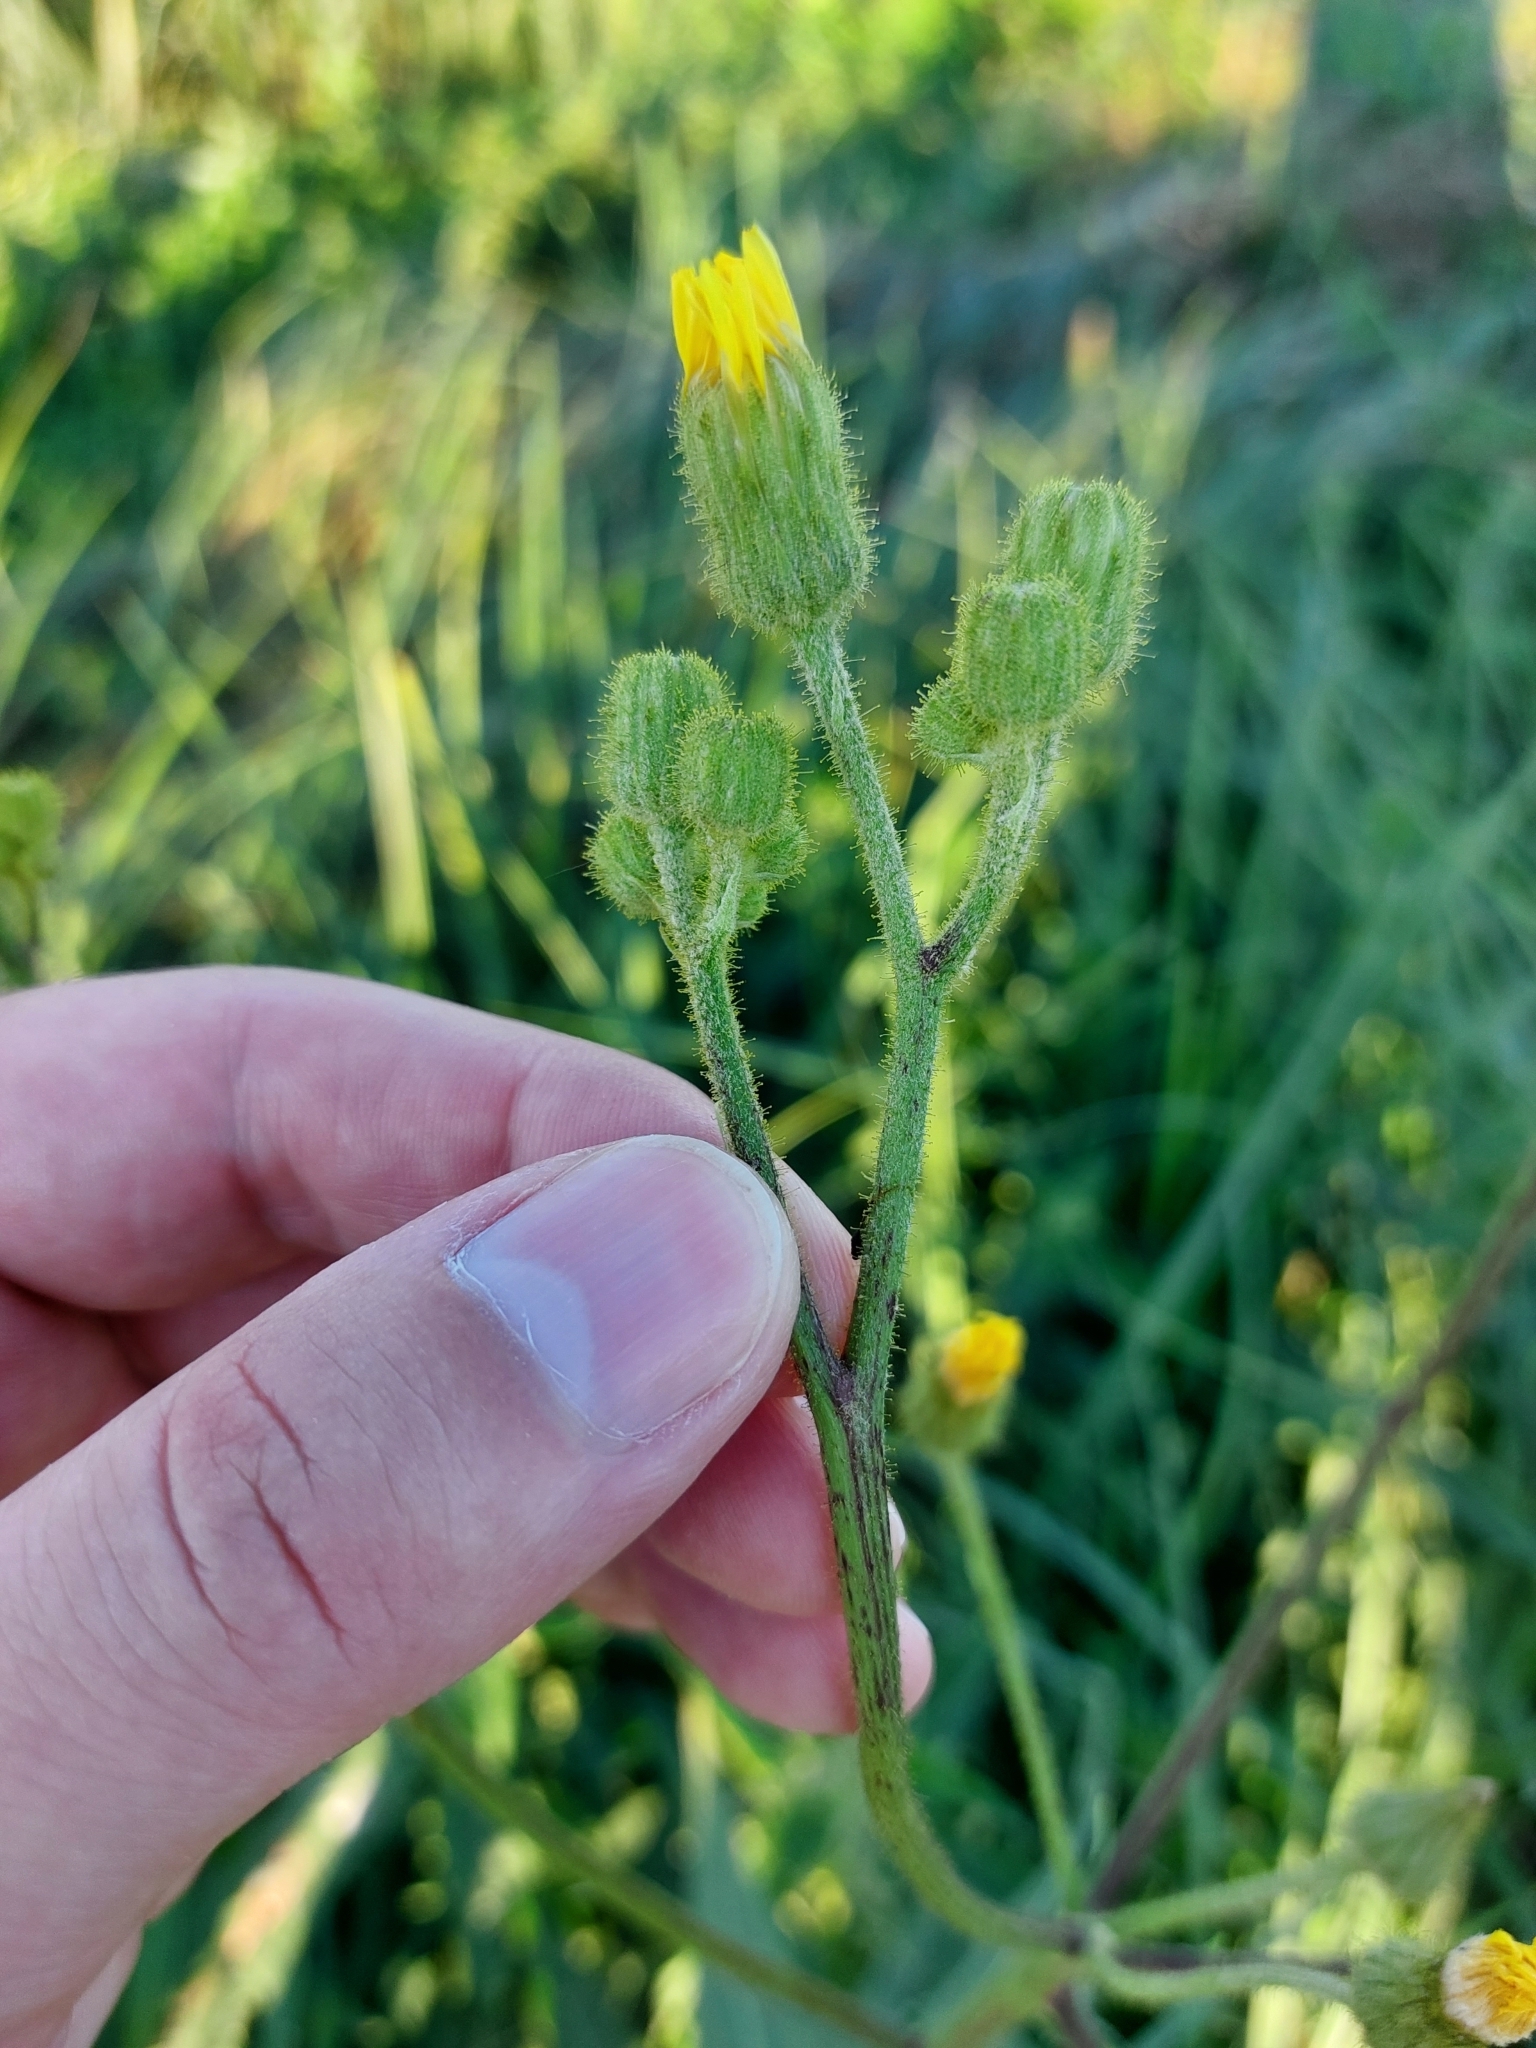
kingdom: Plantae
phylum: Tracheophyta
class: Magnoliopsida
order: Asterales
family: Asteraceae
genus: Sonchus
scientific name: Sonchus palustris
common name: Marsh sow-thistle
